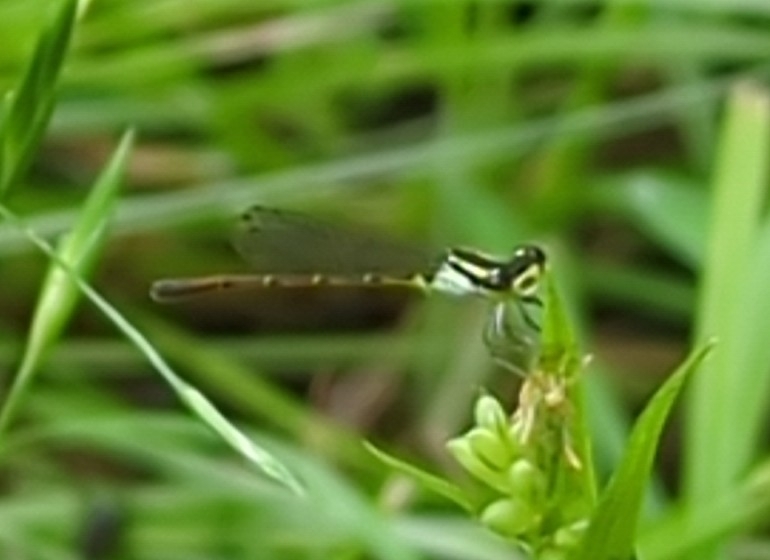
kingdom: Animalia
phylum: Arthropoda
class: Insecta
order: Odonata
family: Coenagrionidae
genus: Ischnura
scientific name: Ischnura posita
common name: Fragile forktail
